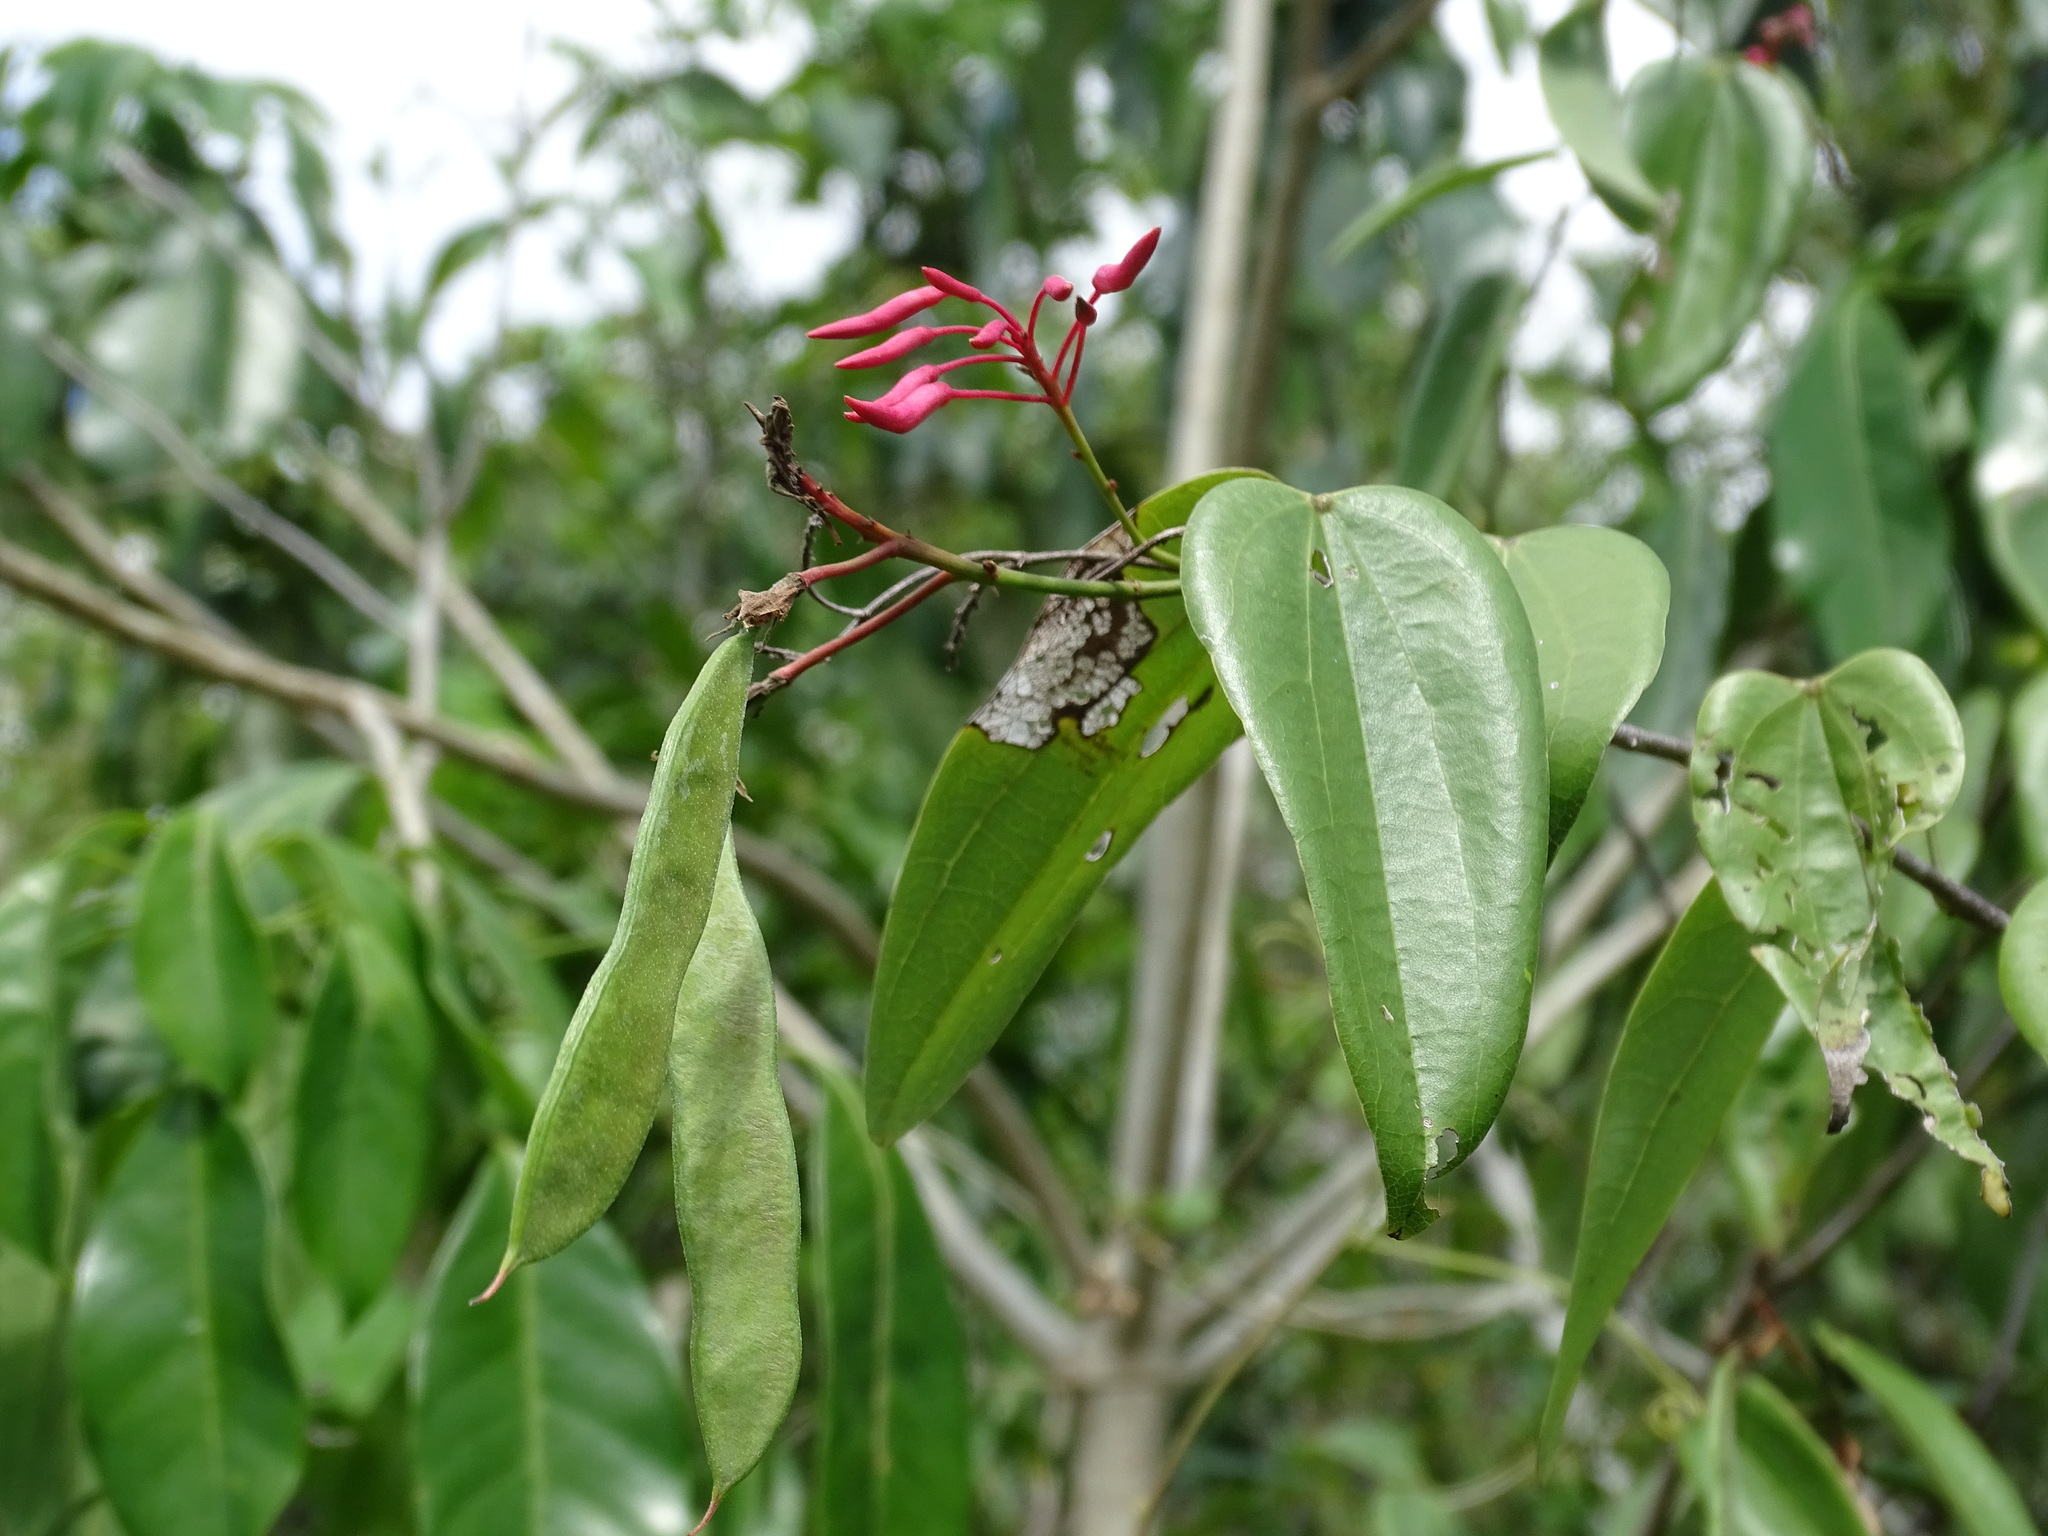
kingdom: Plantae
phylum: Tracheophyta
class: Magnoliopsida
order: Fabales
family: Fabaceae
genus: Bauhinia
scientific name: Bauhinia jenningsii
